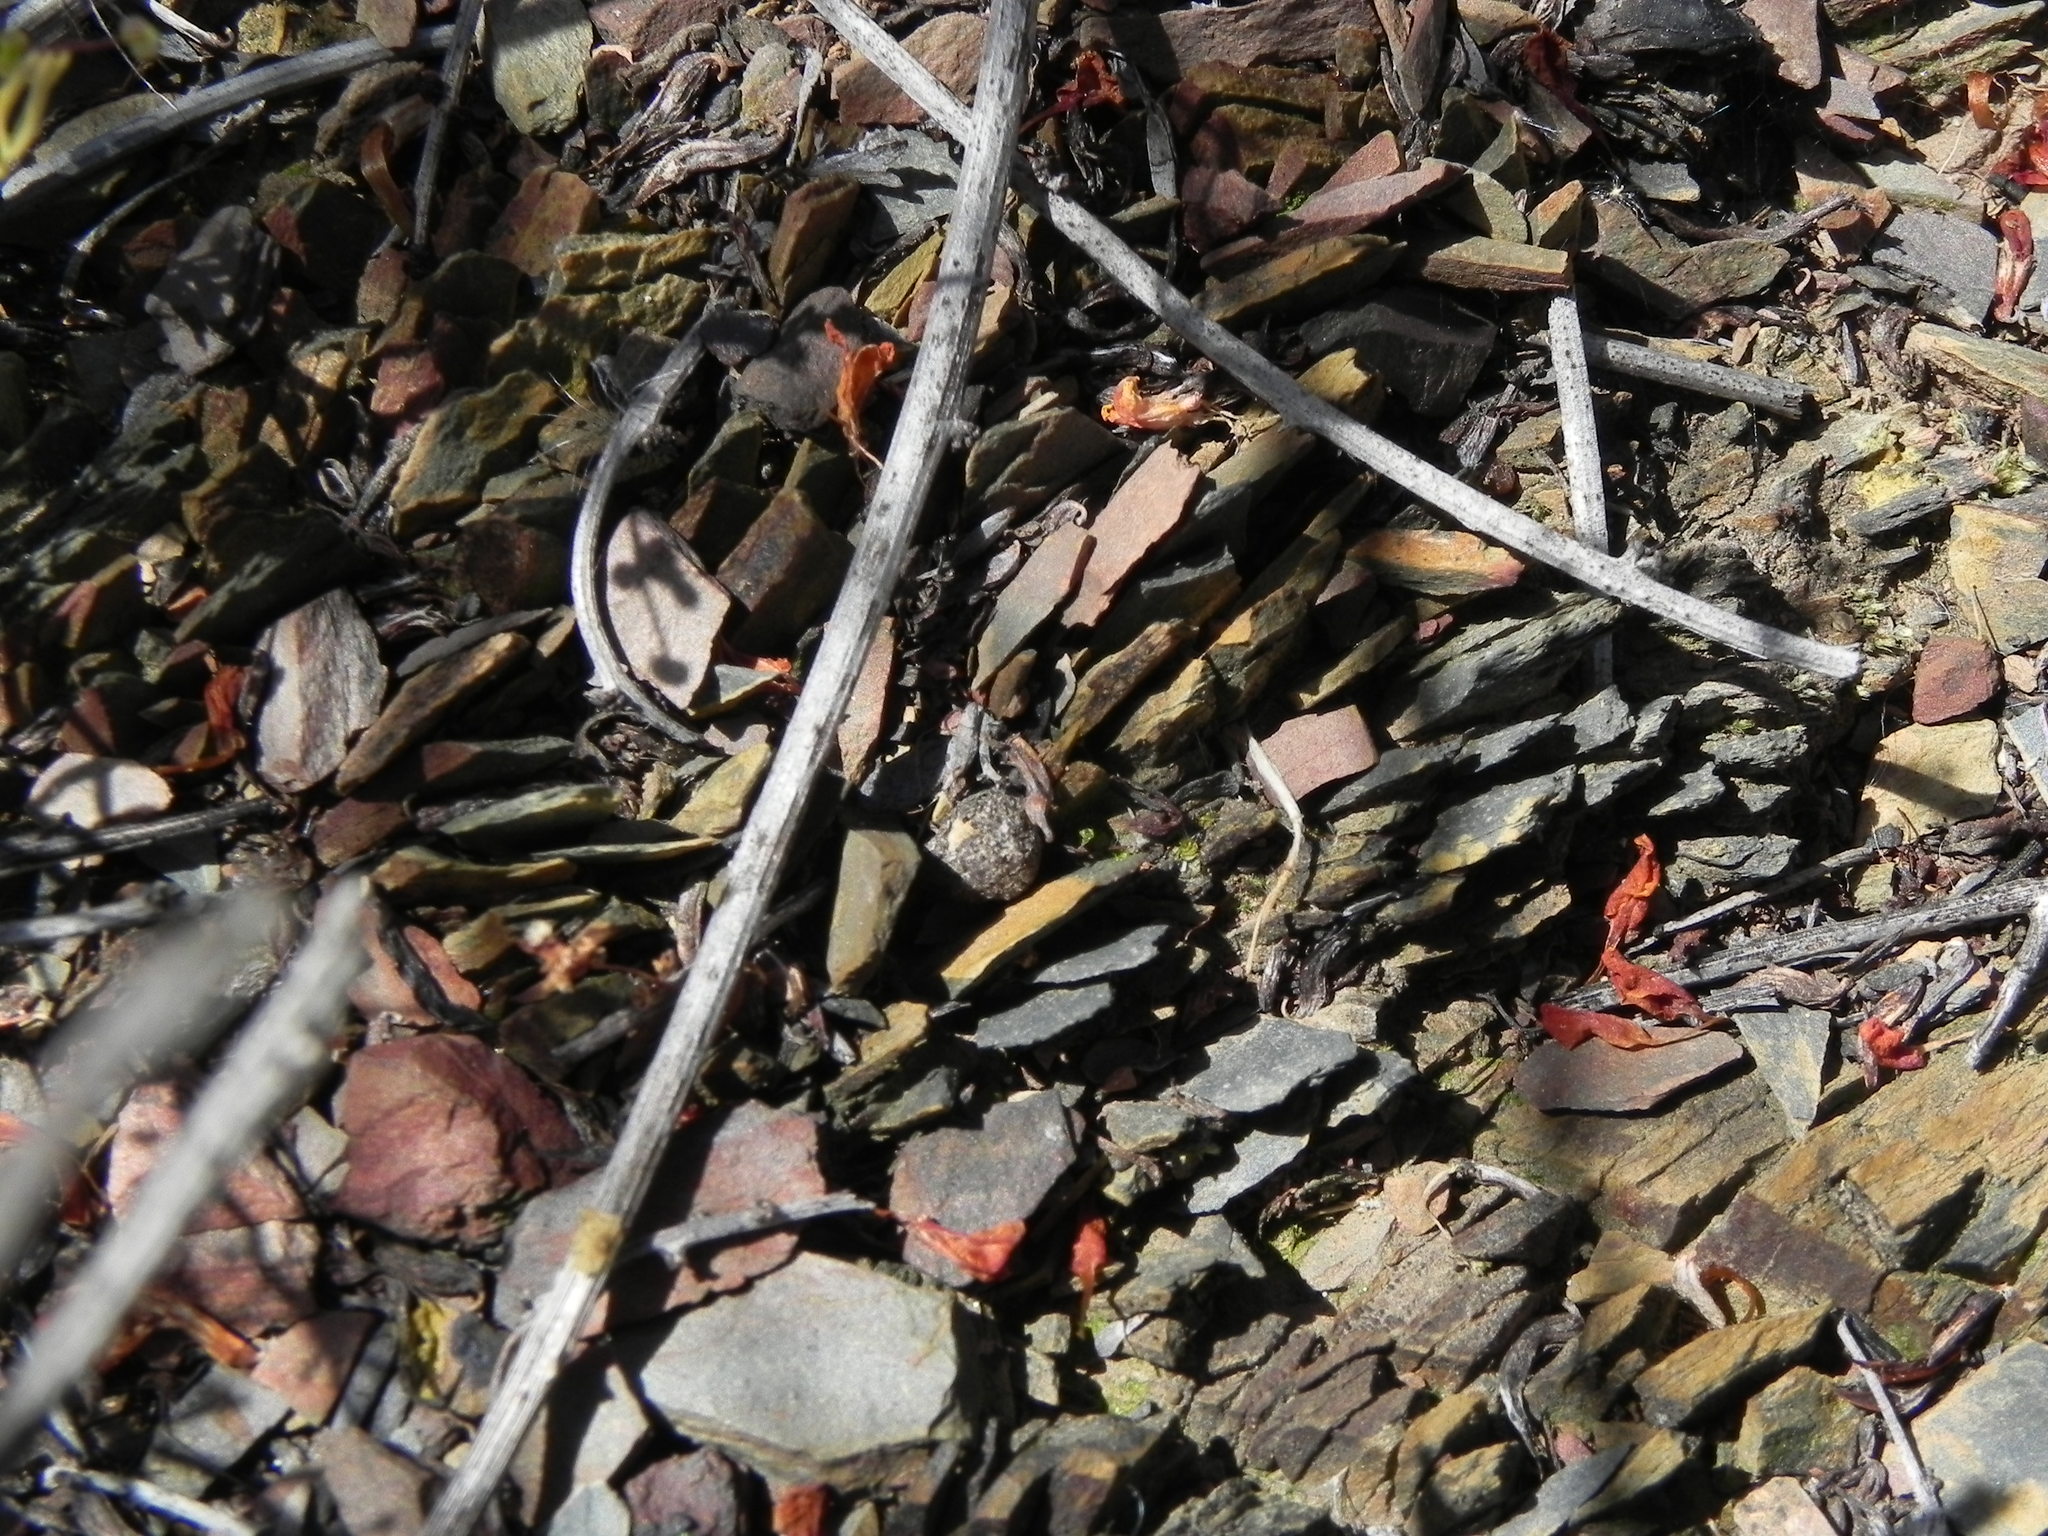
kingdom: Plantae
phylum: Tracheophyta
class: Magnoliopsida
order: Asterales
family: Asteraceae
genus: Logfia
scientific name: Logfia californica
